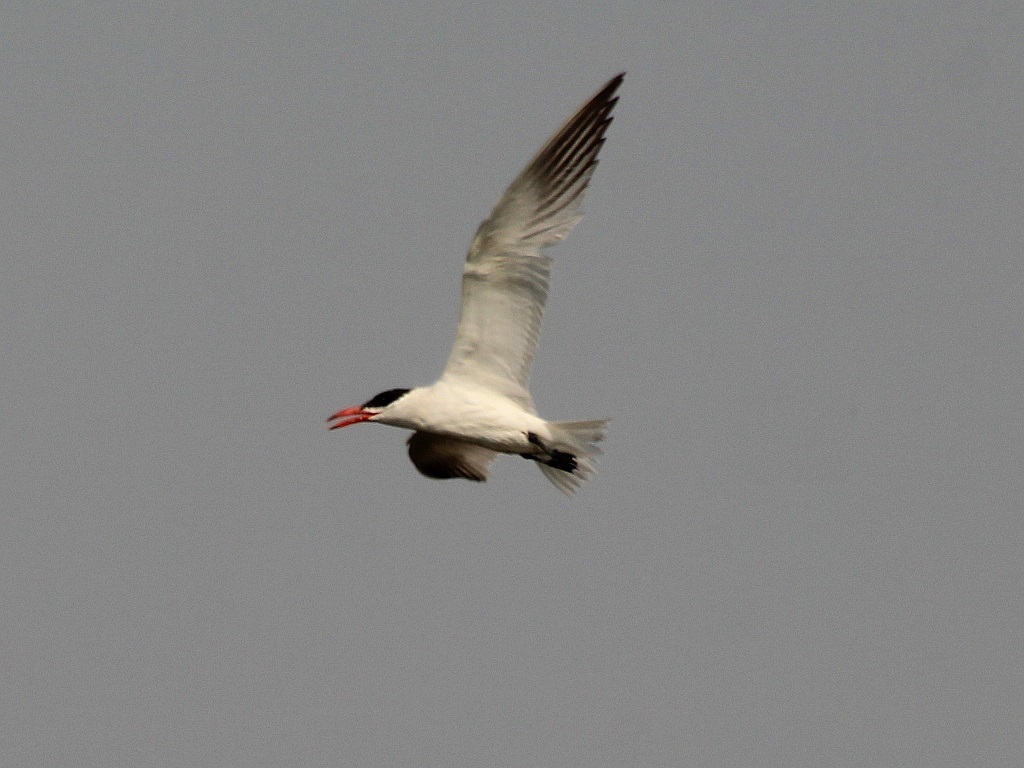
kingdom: Animalia
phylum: Chordata
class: Aves
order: Charadriiformes
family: Laridae
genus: Hydroprogne
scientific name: Hydroprogne caspia
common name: Caspian tern
